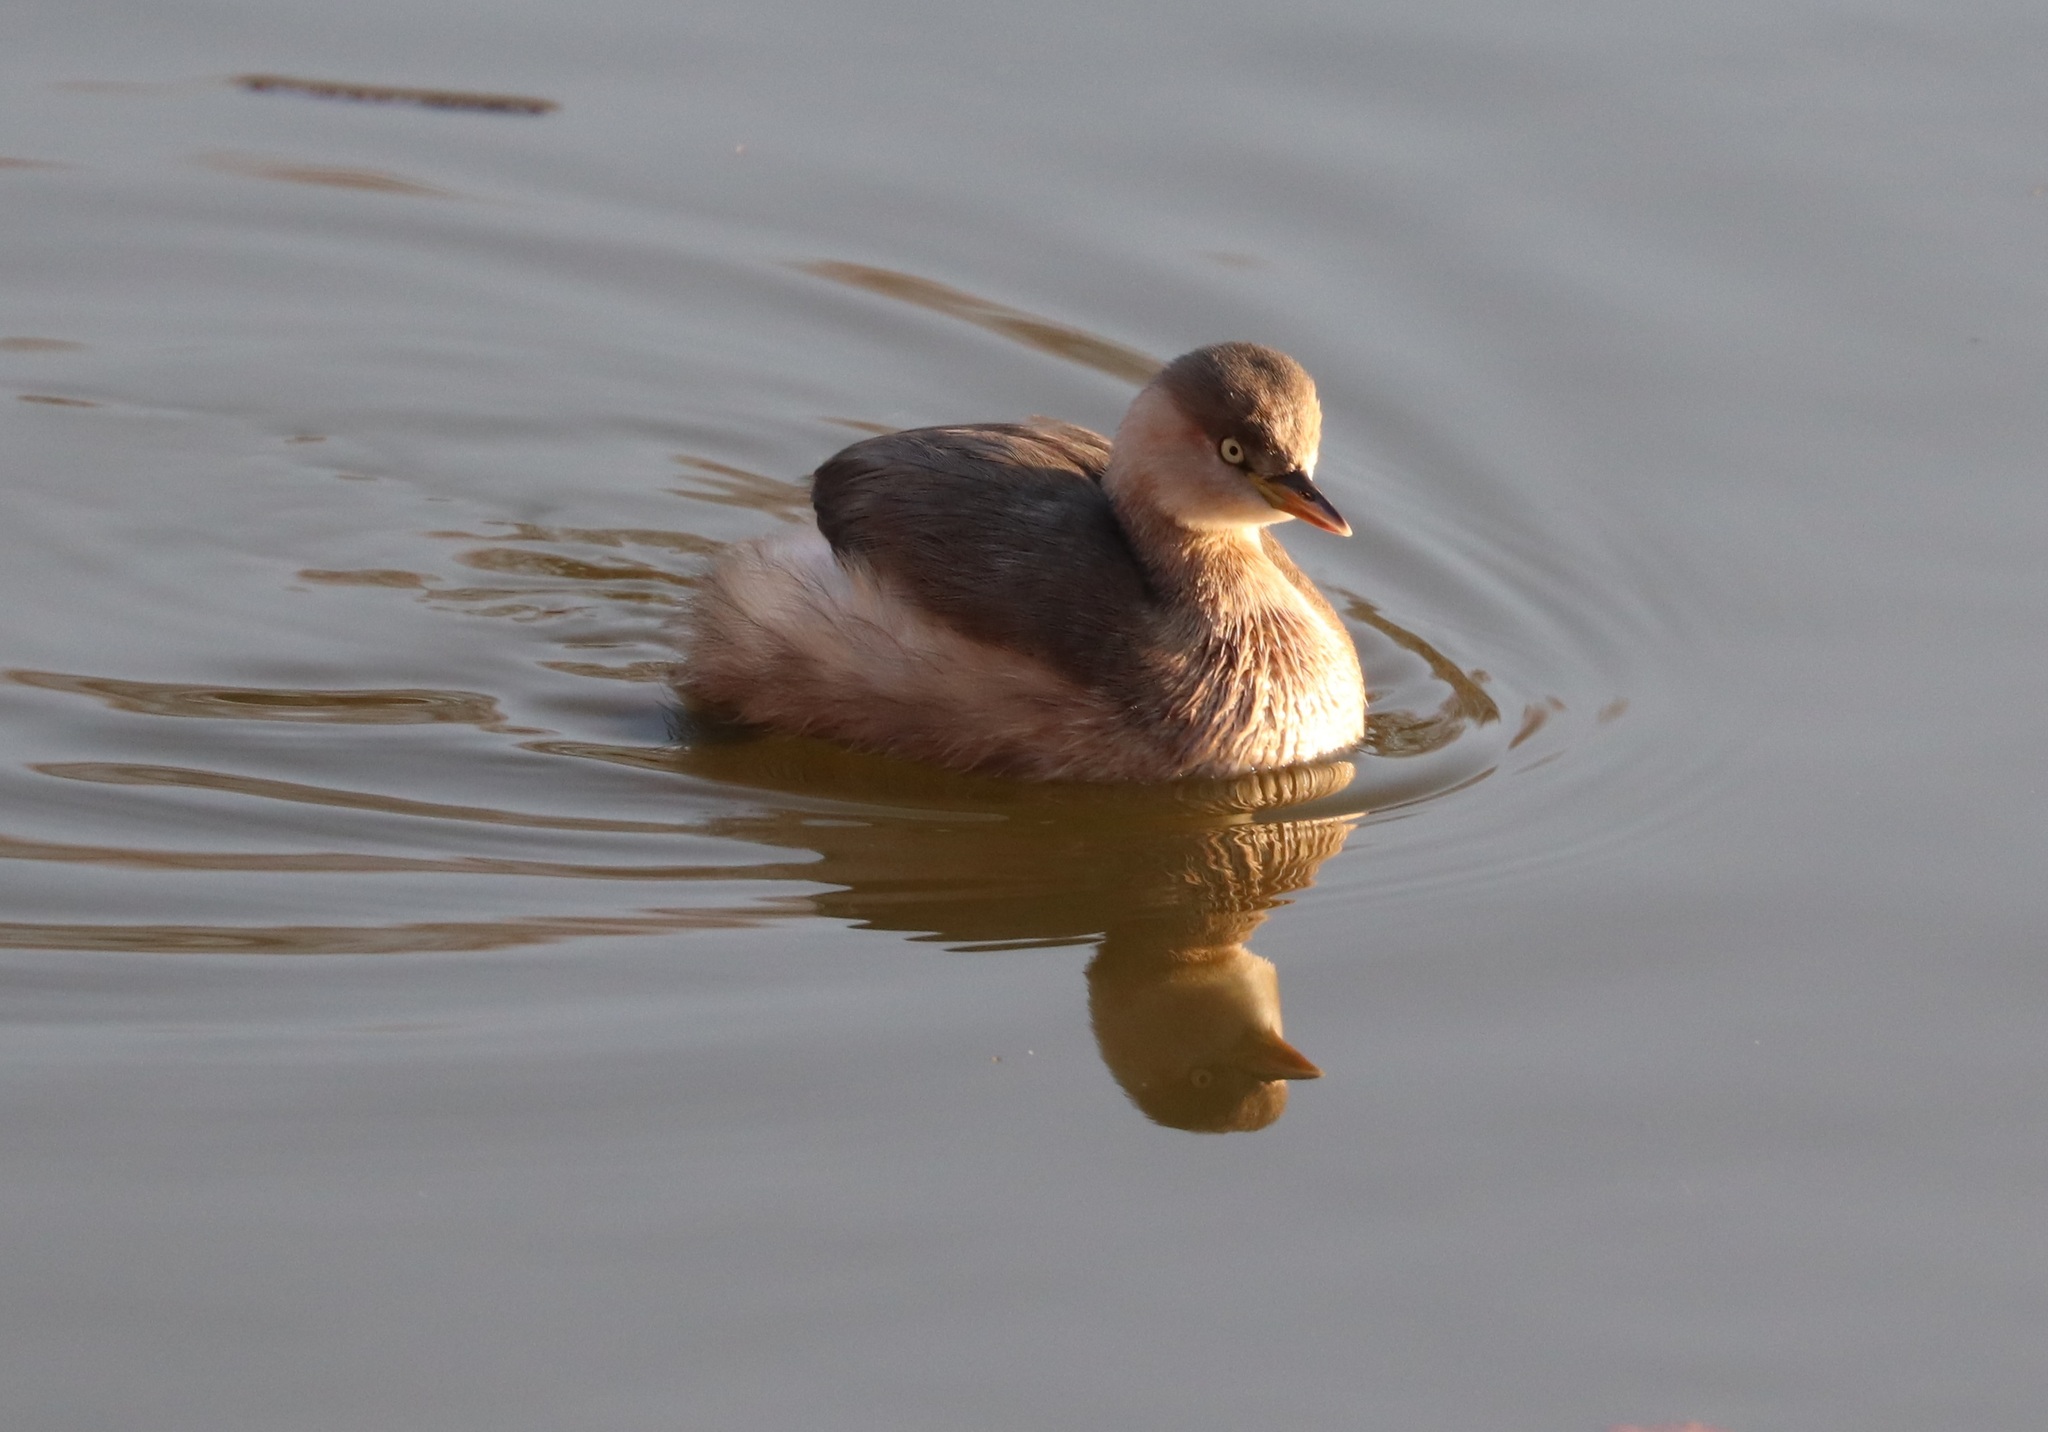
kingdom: Animalia
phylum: Chordata
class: Aves
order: Podicipediformes
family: Podicipedidae
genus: Tachybaptus
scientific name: Tachybaptus ruficollis
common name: Little grebe
